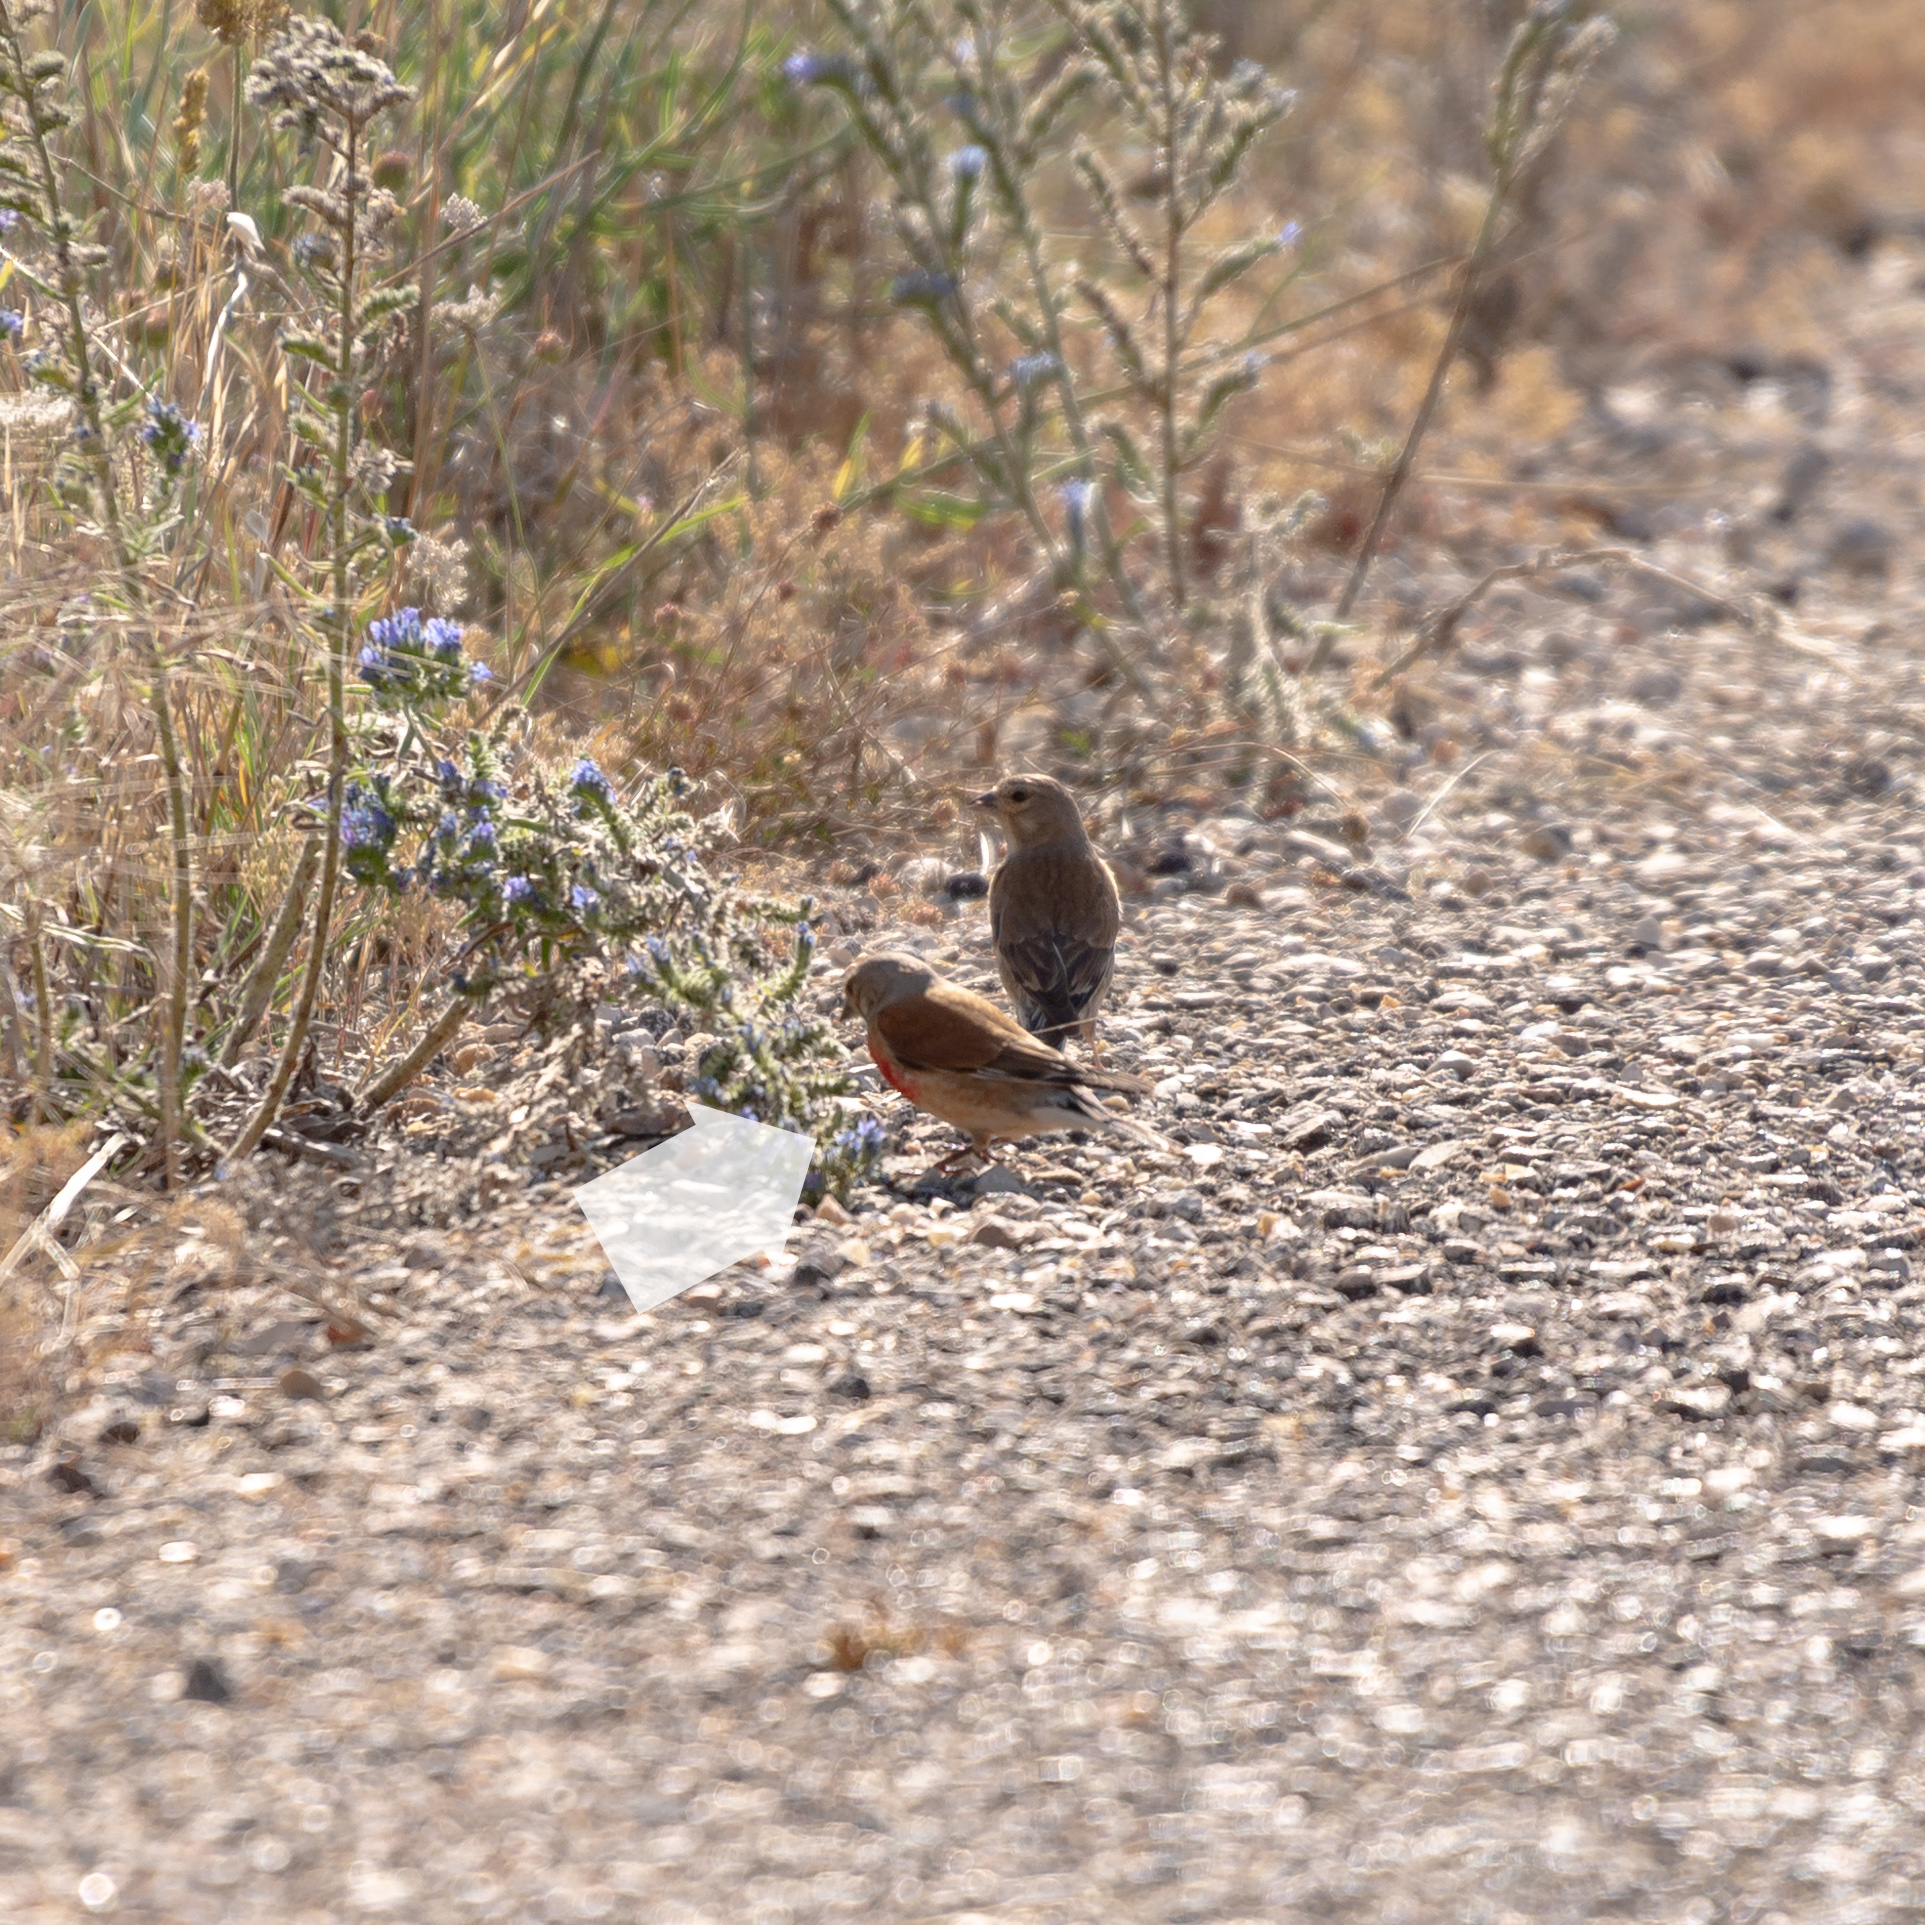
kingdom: Animalia
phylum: Chordata
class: Aves
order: Passeriformes
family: Fringillidae
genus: Linaria
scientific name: Linaria cannabina
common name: Common linnet
